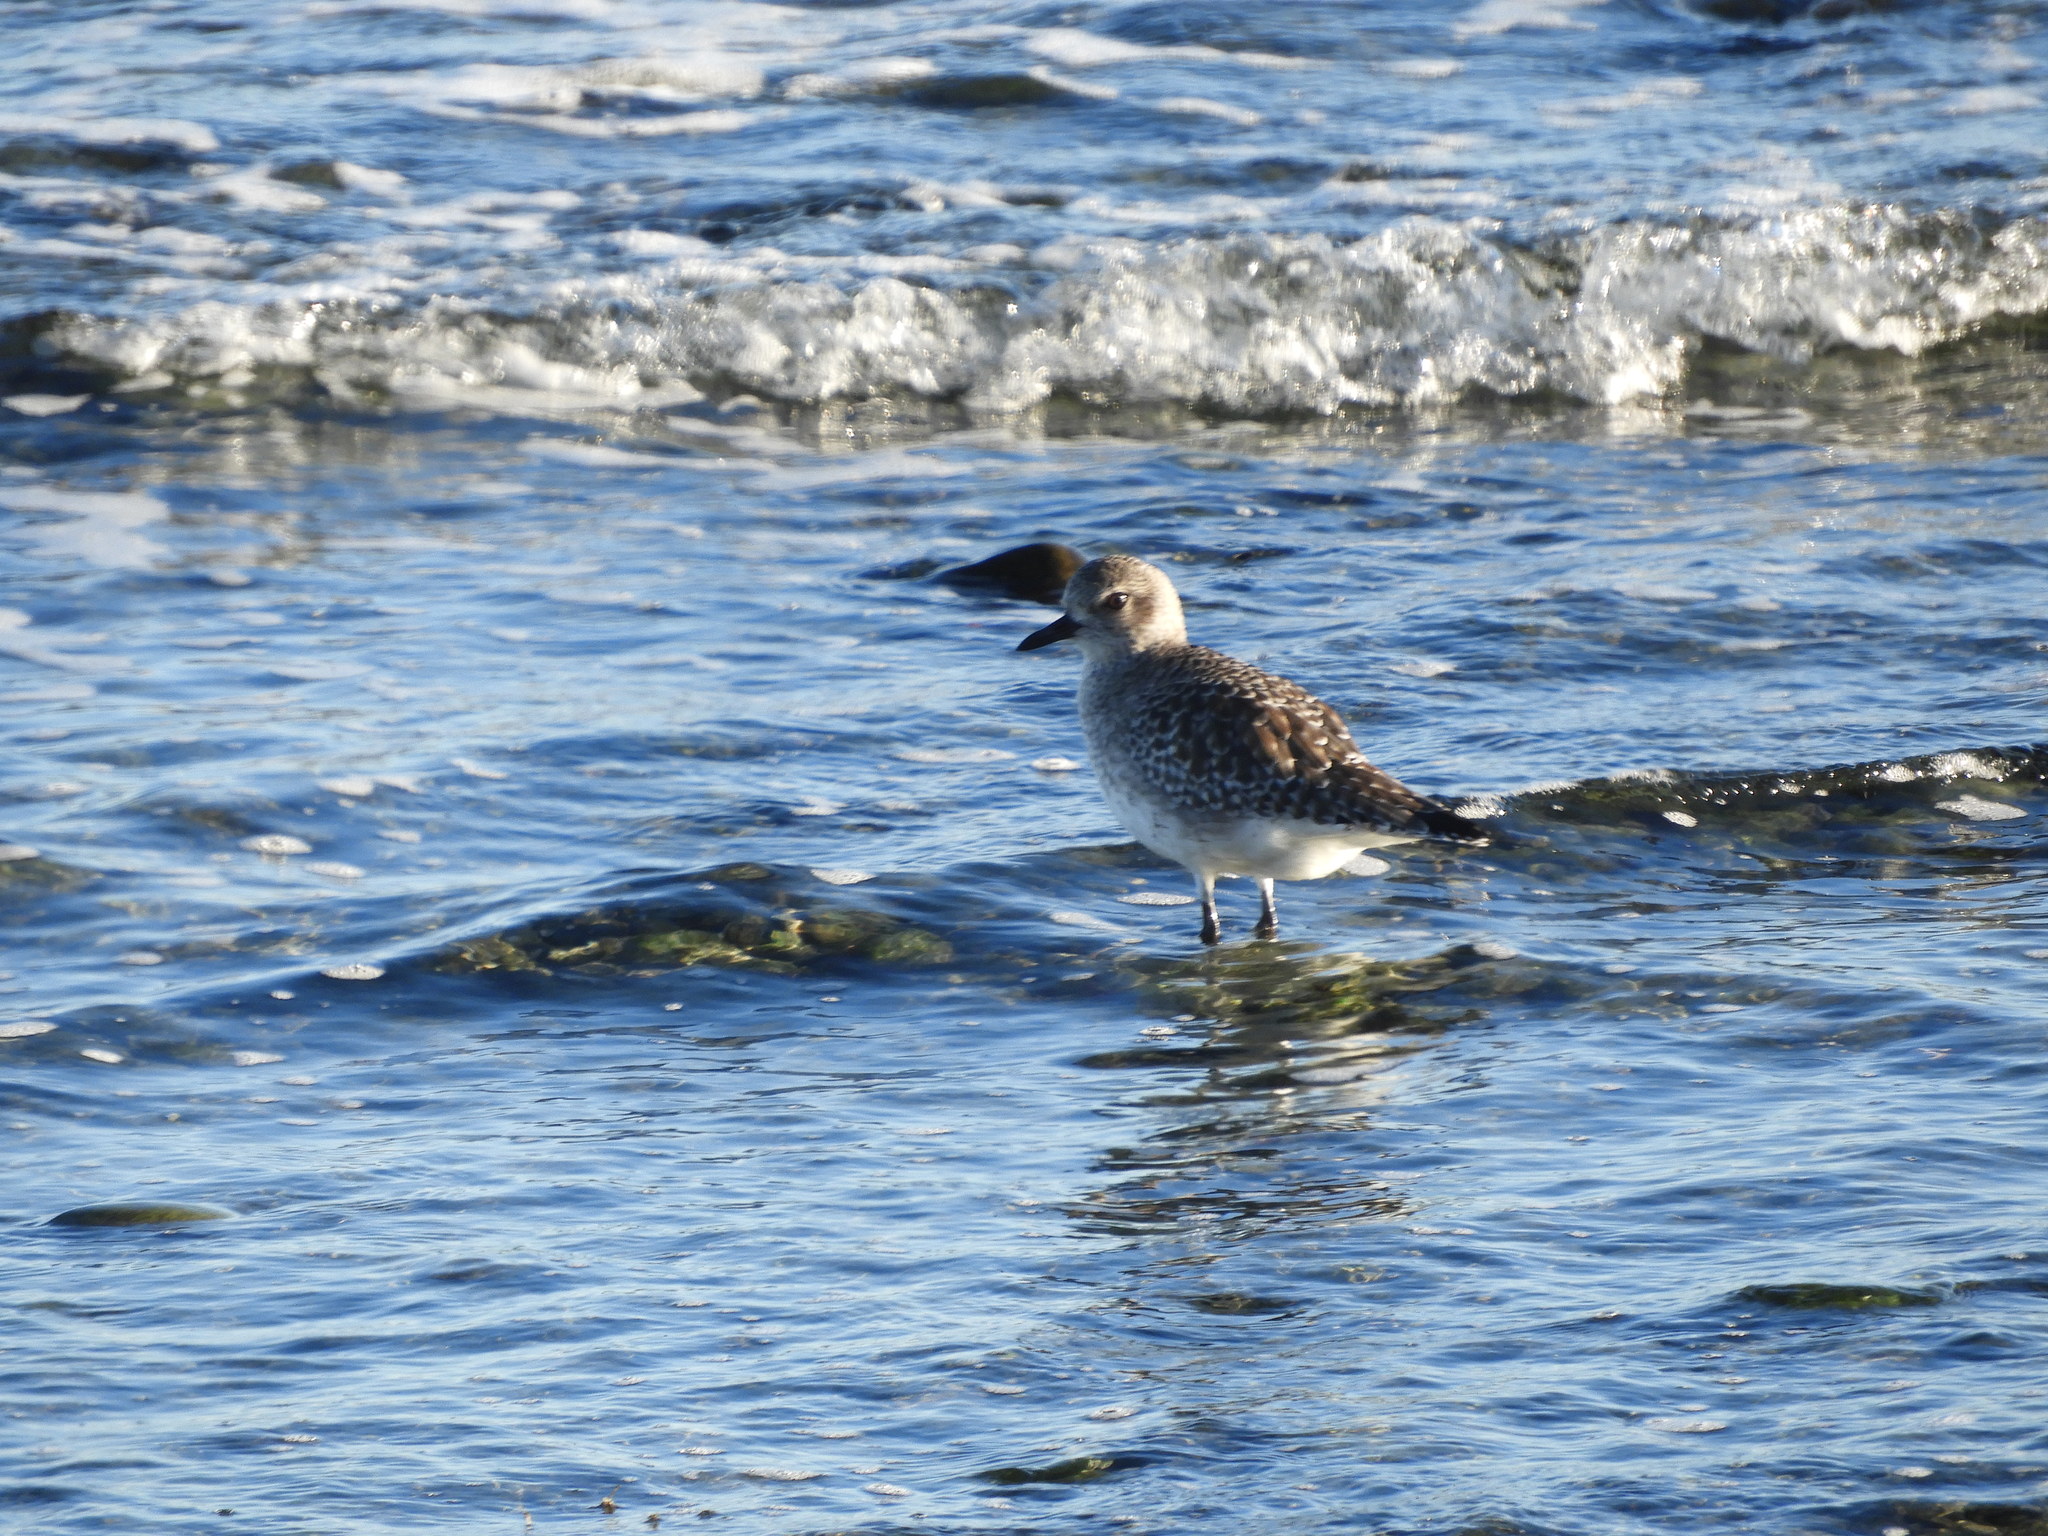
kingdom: Animalia
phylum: Chordata
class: Aves
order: Charadriiformes
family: Charadriidae
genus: Pluvialis
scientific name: Pluvialis squatarola
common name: Grey plover
